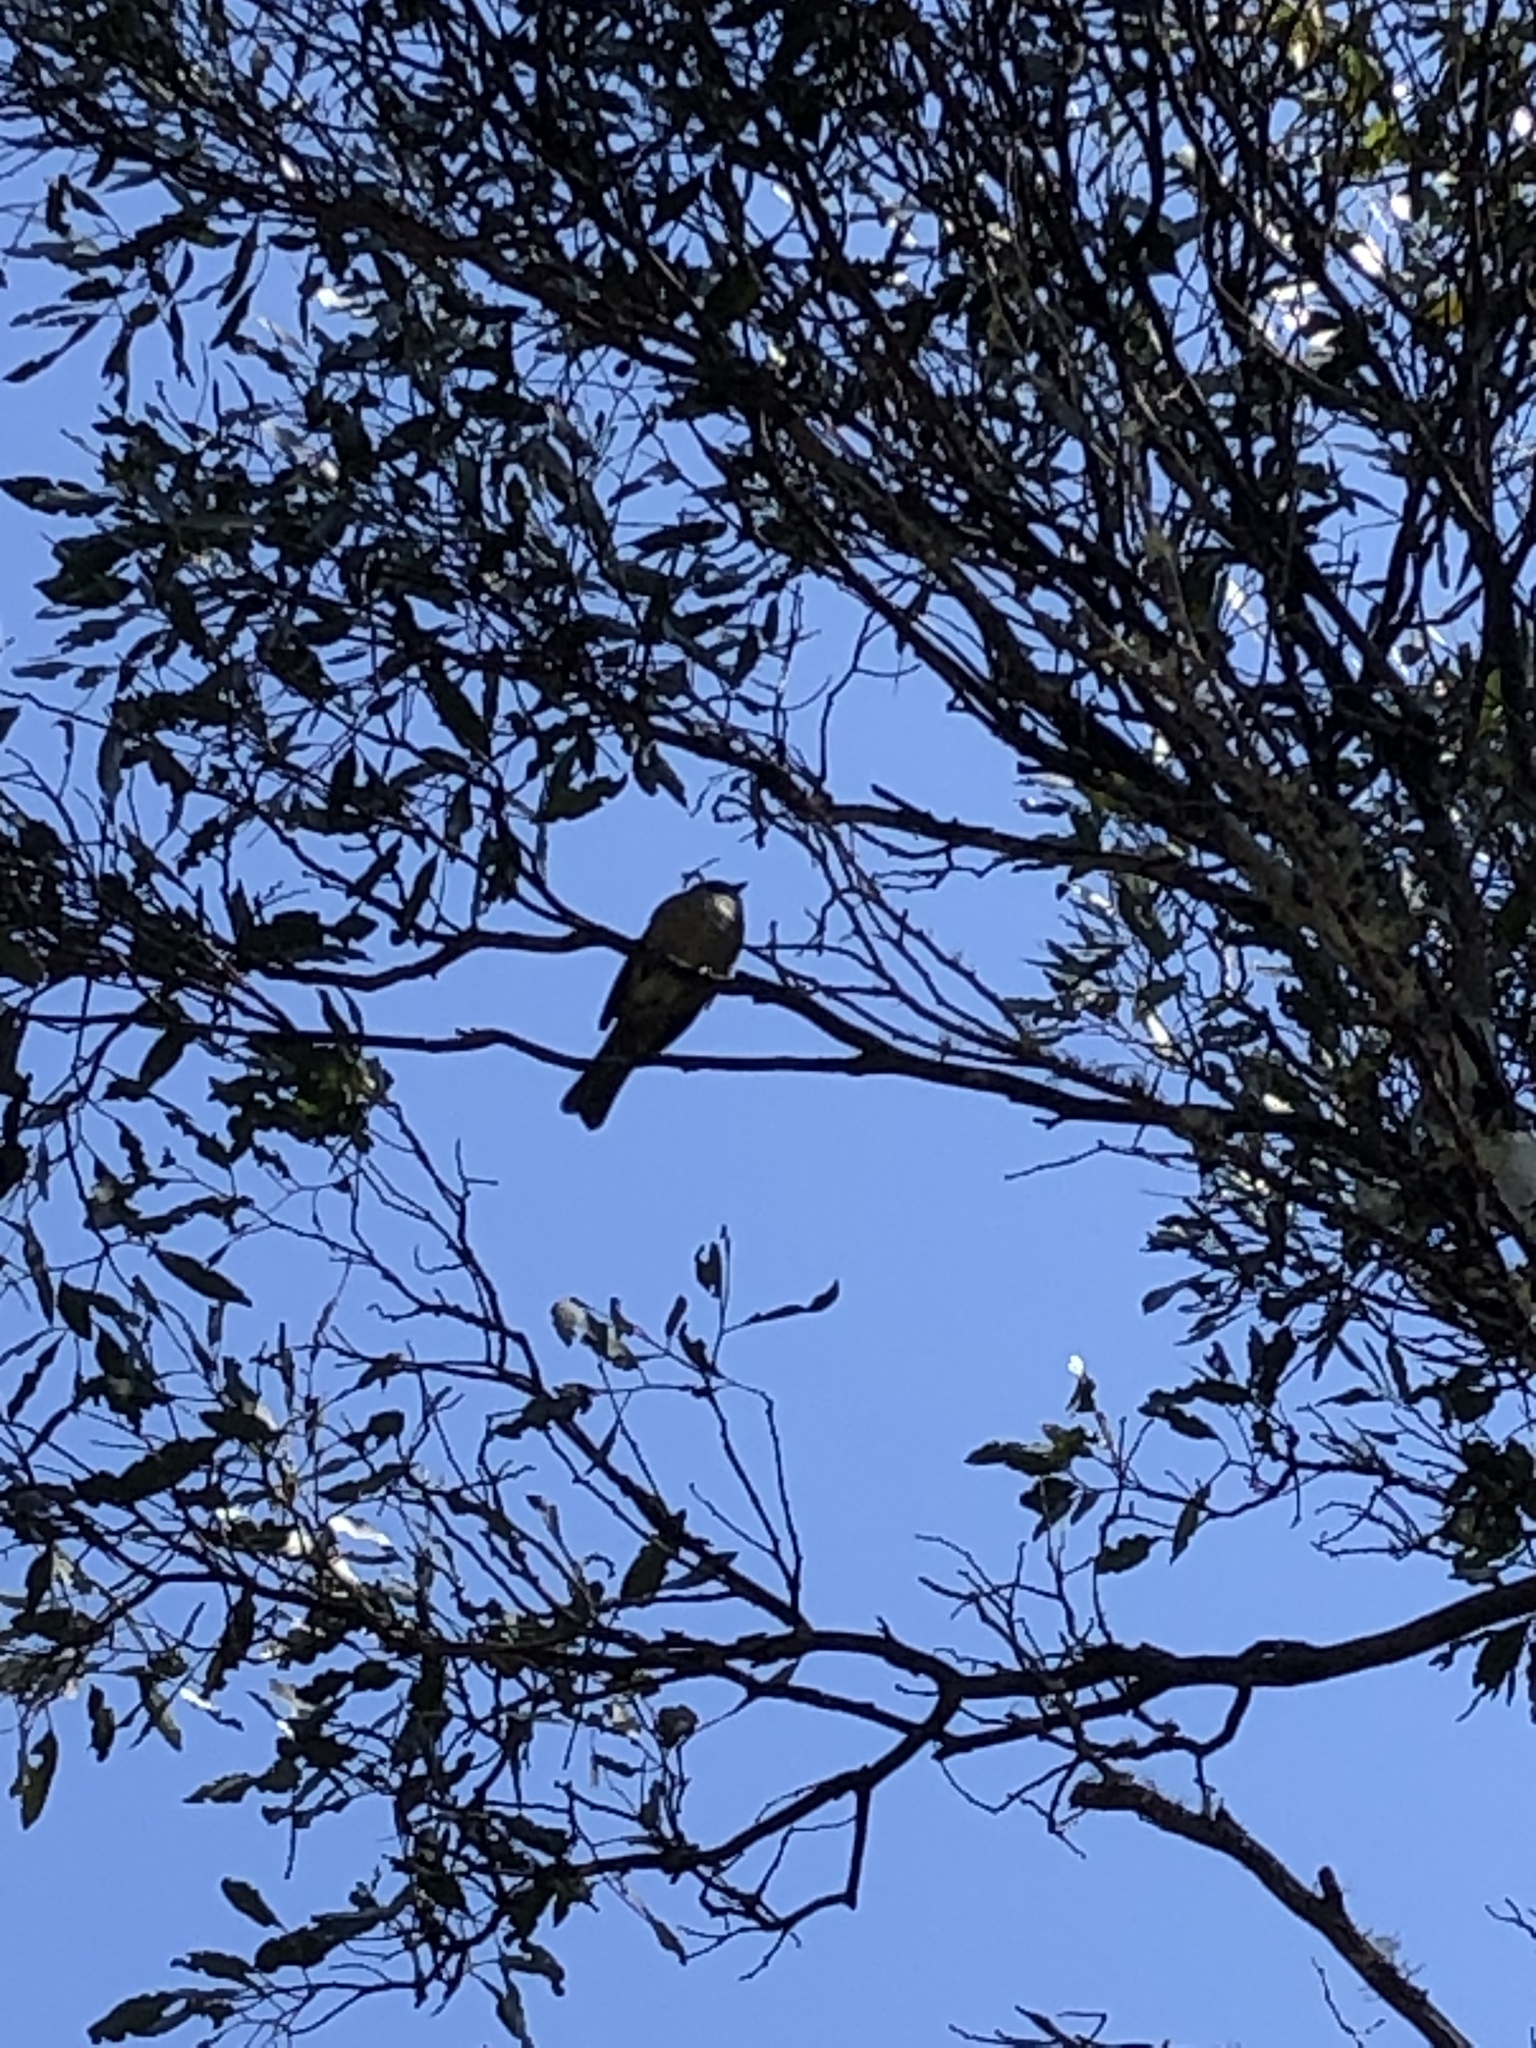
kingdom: Animalia
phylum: Chordata
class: Aves
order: Passeriformes
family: Pachycephalidae
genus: Pachycephala
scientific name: Pachycephala olivacea
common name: Olive whistler
